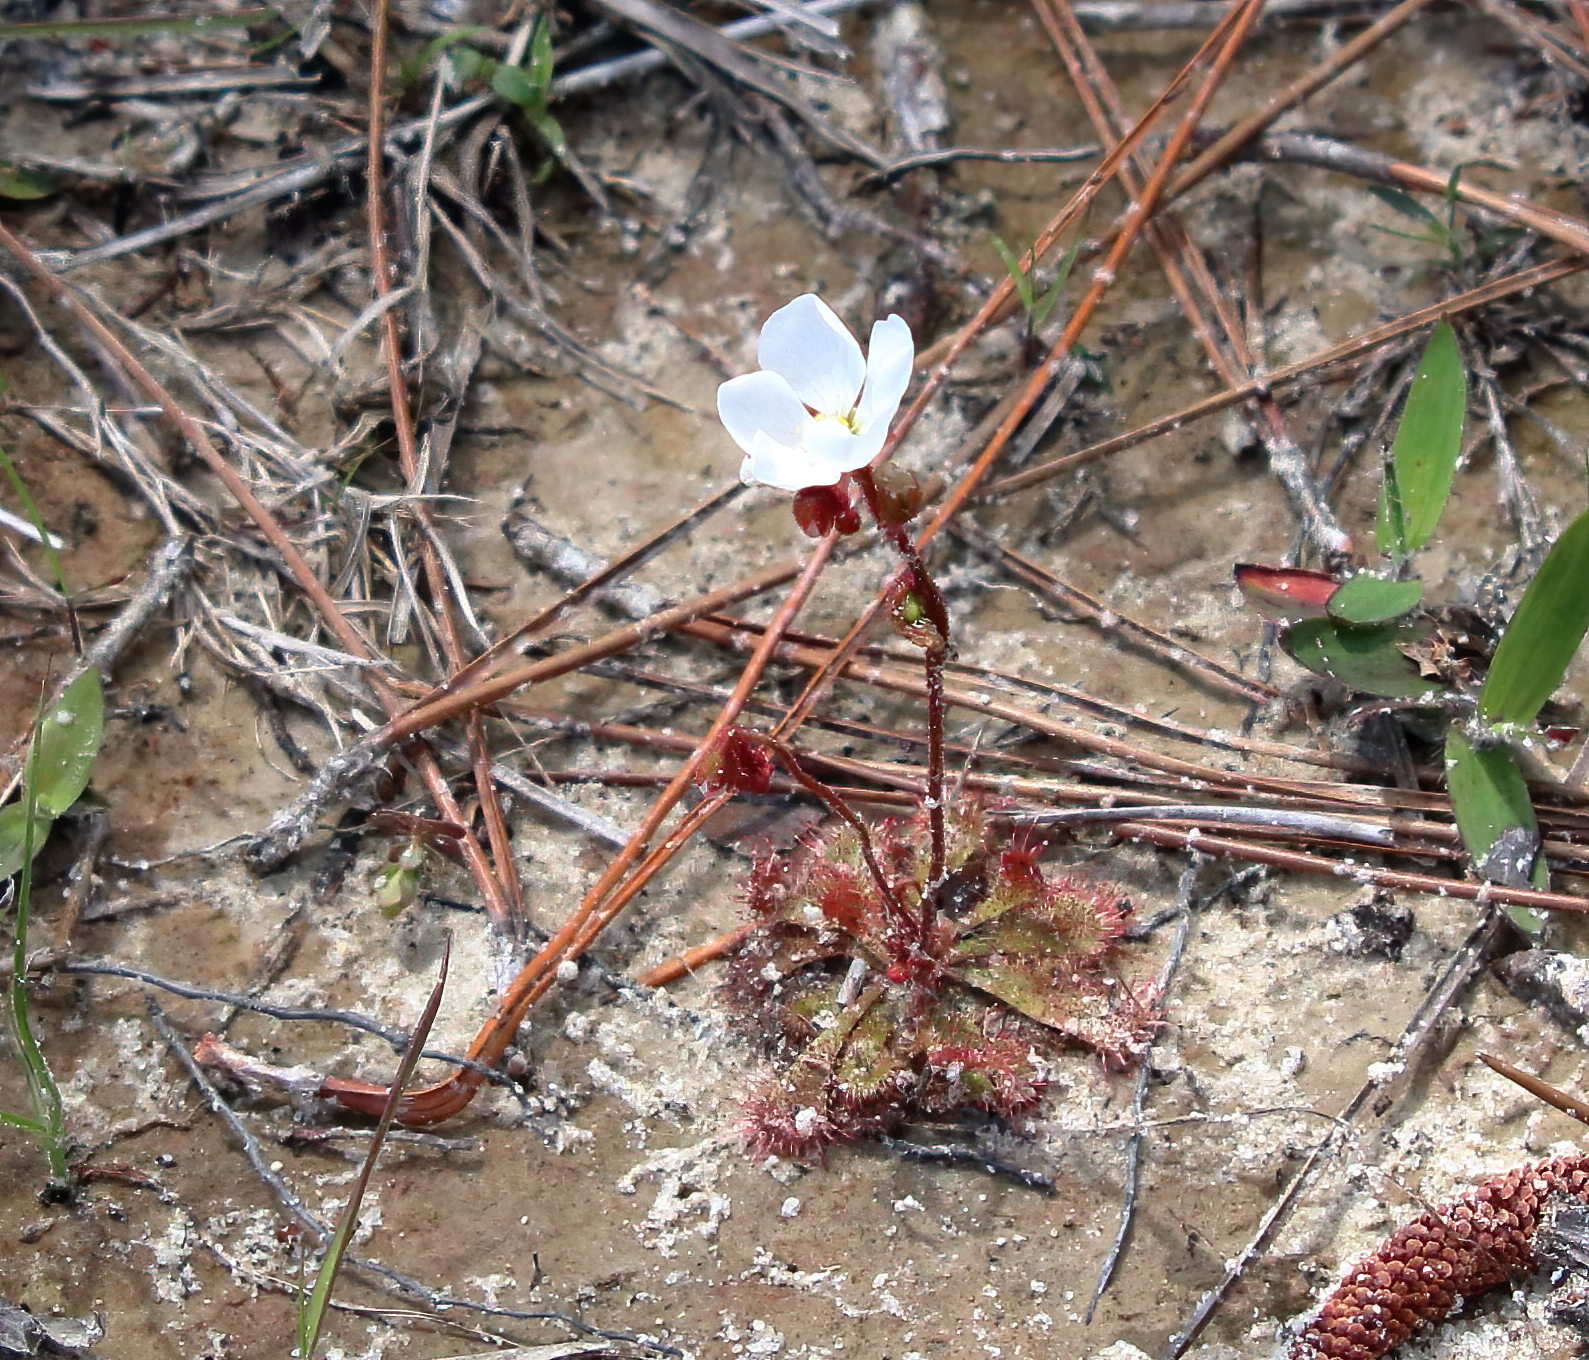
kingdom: Plantae
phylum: Tracheophyta
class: Magnoliopsida
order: Caryophyllales
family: Droseraceae
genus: Drosera
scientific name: Drosera brevifolia
